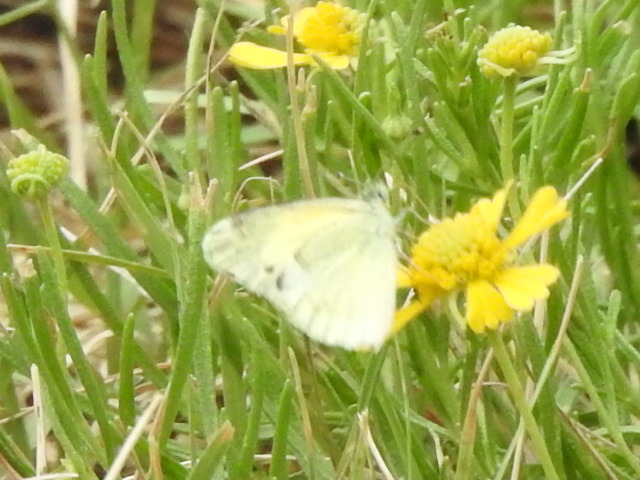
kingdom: Animalia
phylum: Arthropoda
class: Insecta
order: Lepidoptera
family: Pieridae
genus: Nathalis
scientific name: Nathalis iole
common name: Dainty sulphur
